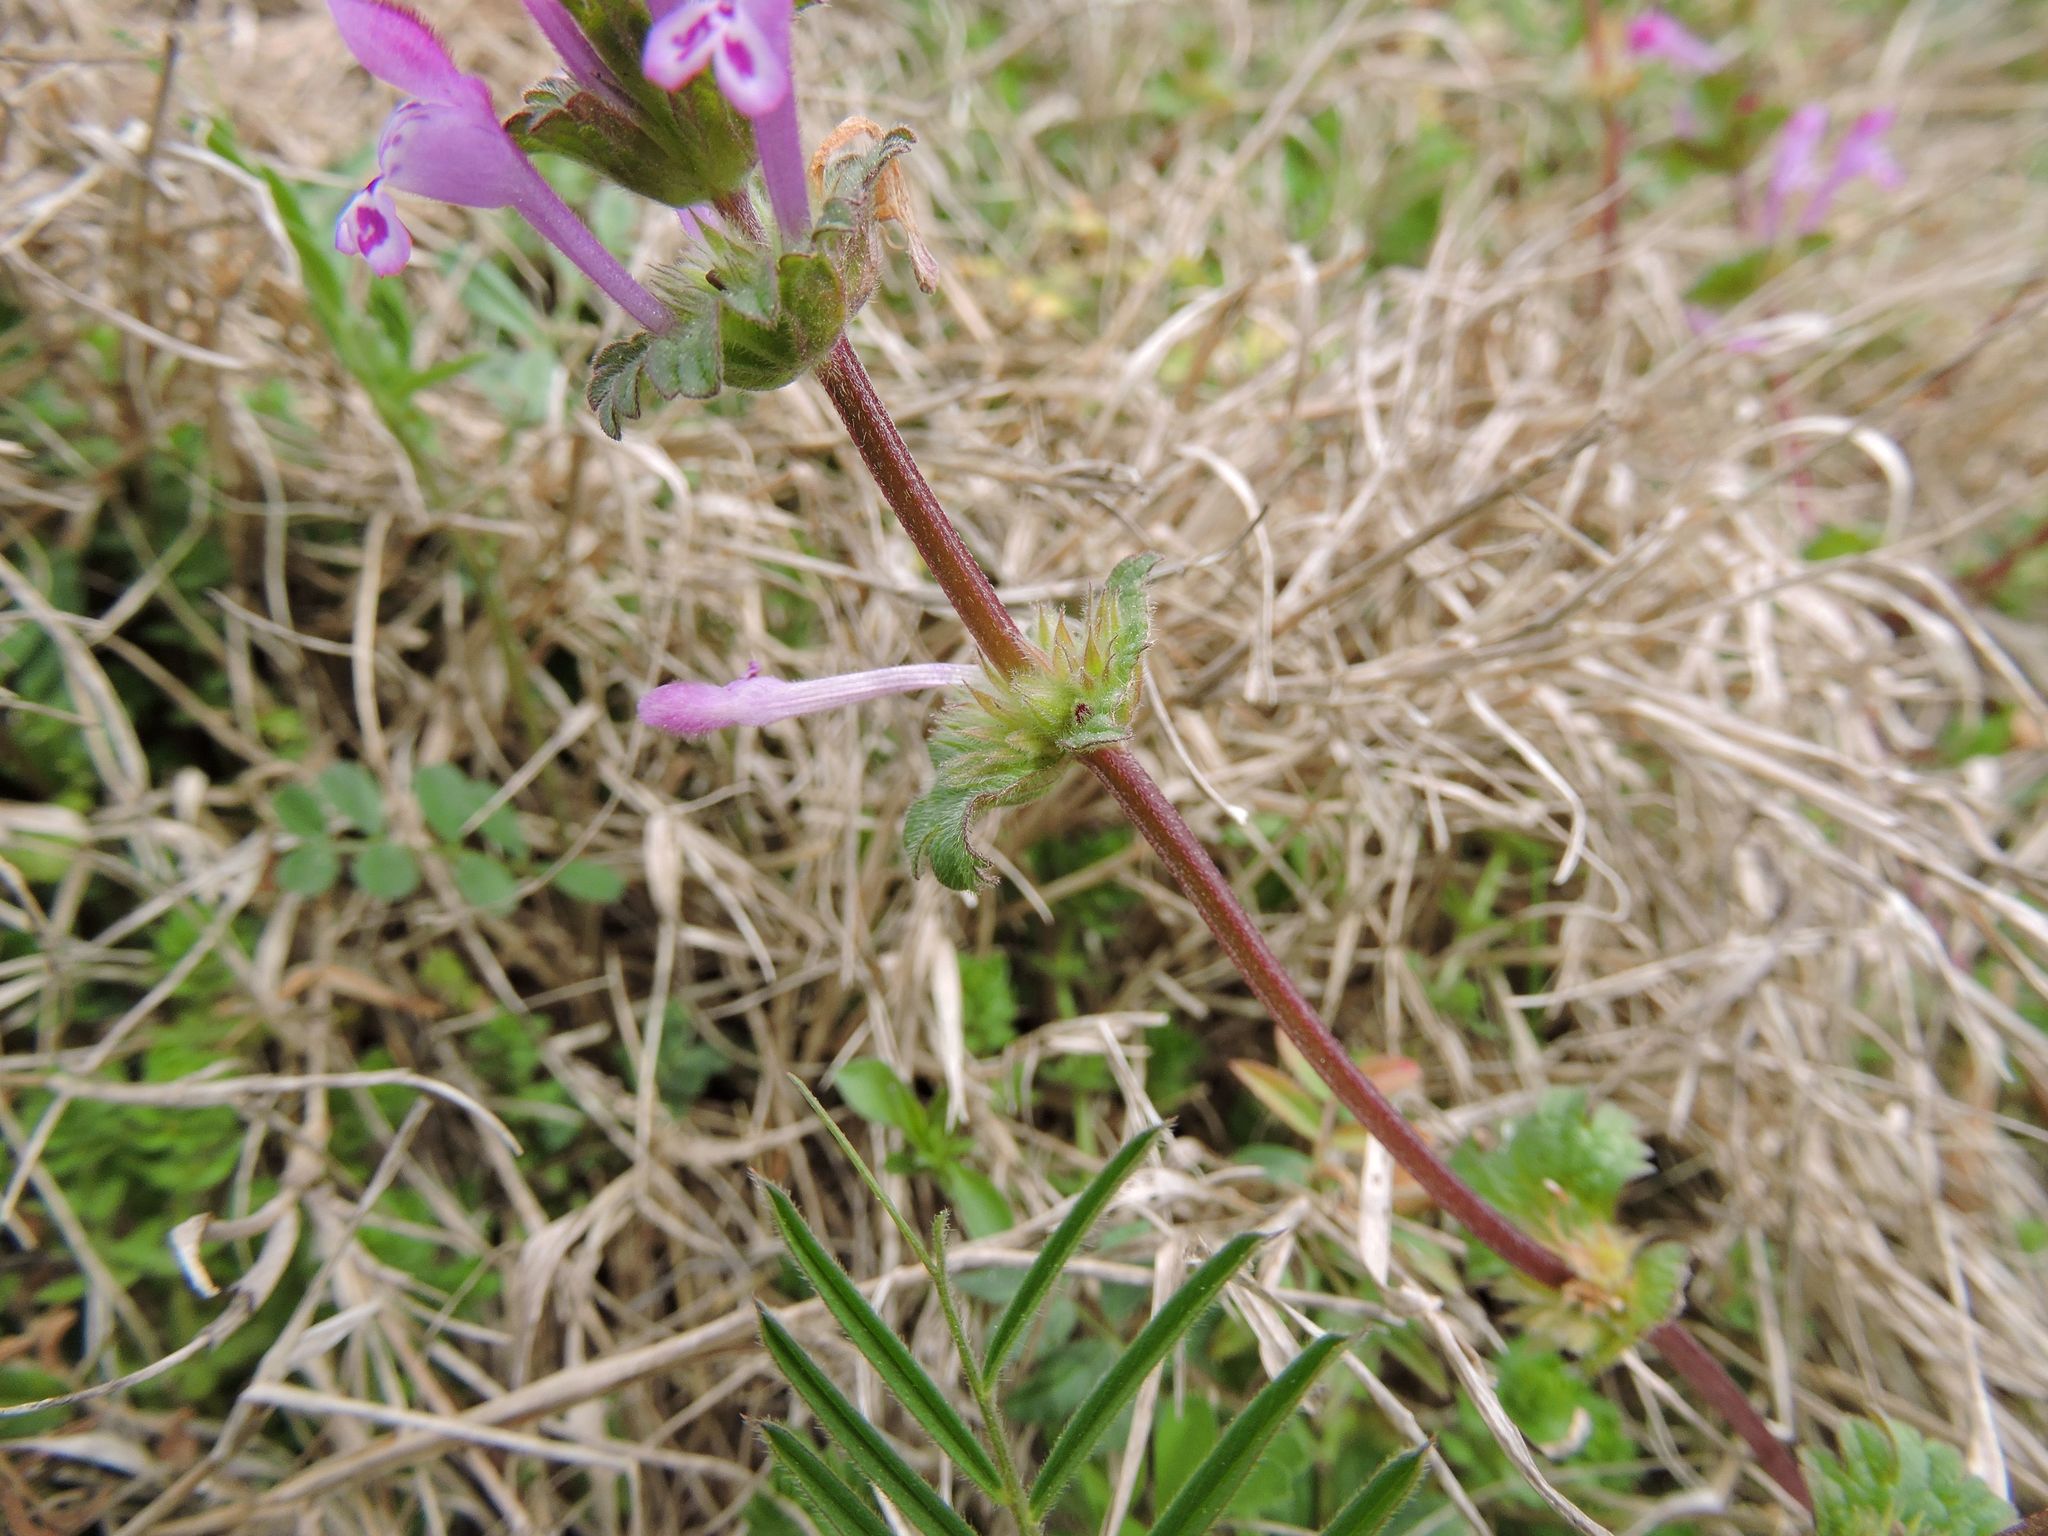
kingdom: Plantae
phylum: Tracheophyta
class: Magnoliopsida
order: Lamiales
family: Lamiaceae
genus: Lamium
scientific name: Lamium amplexicaule
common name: Henbit dead-nettle
